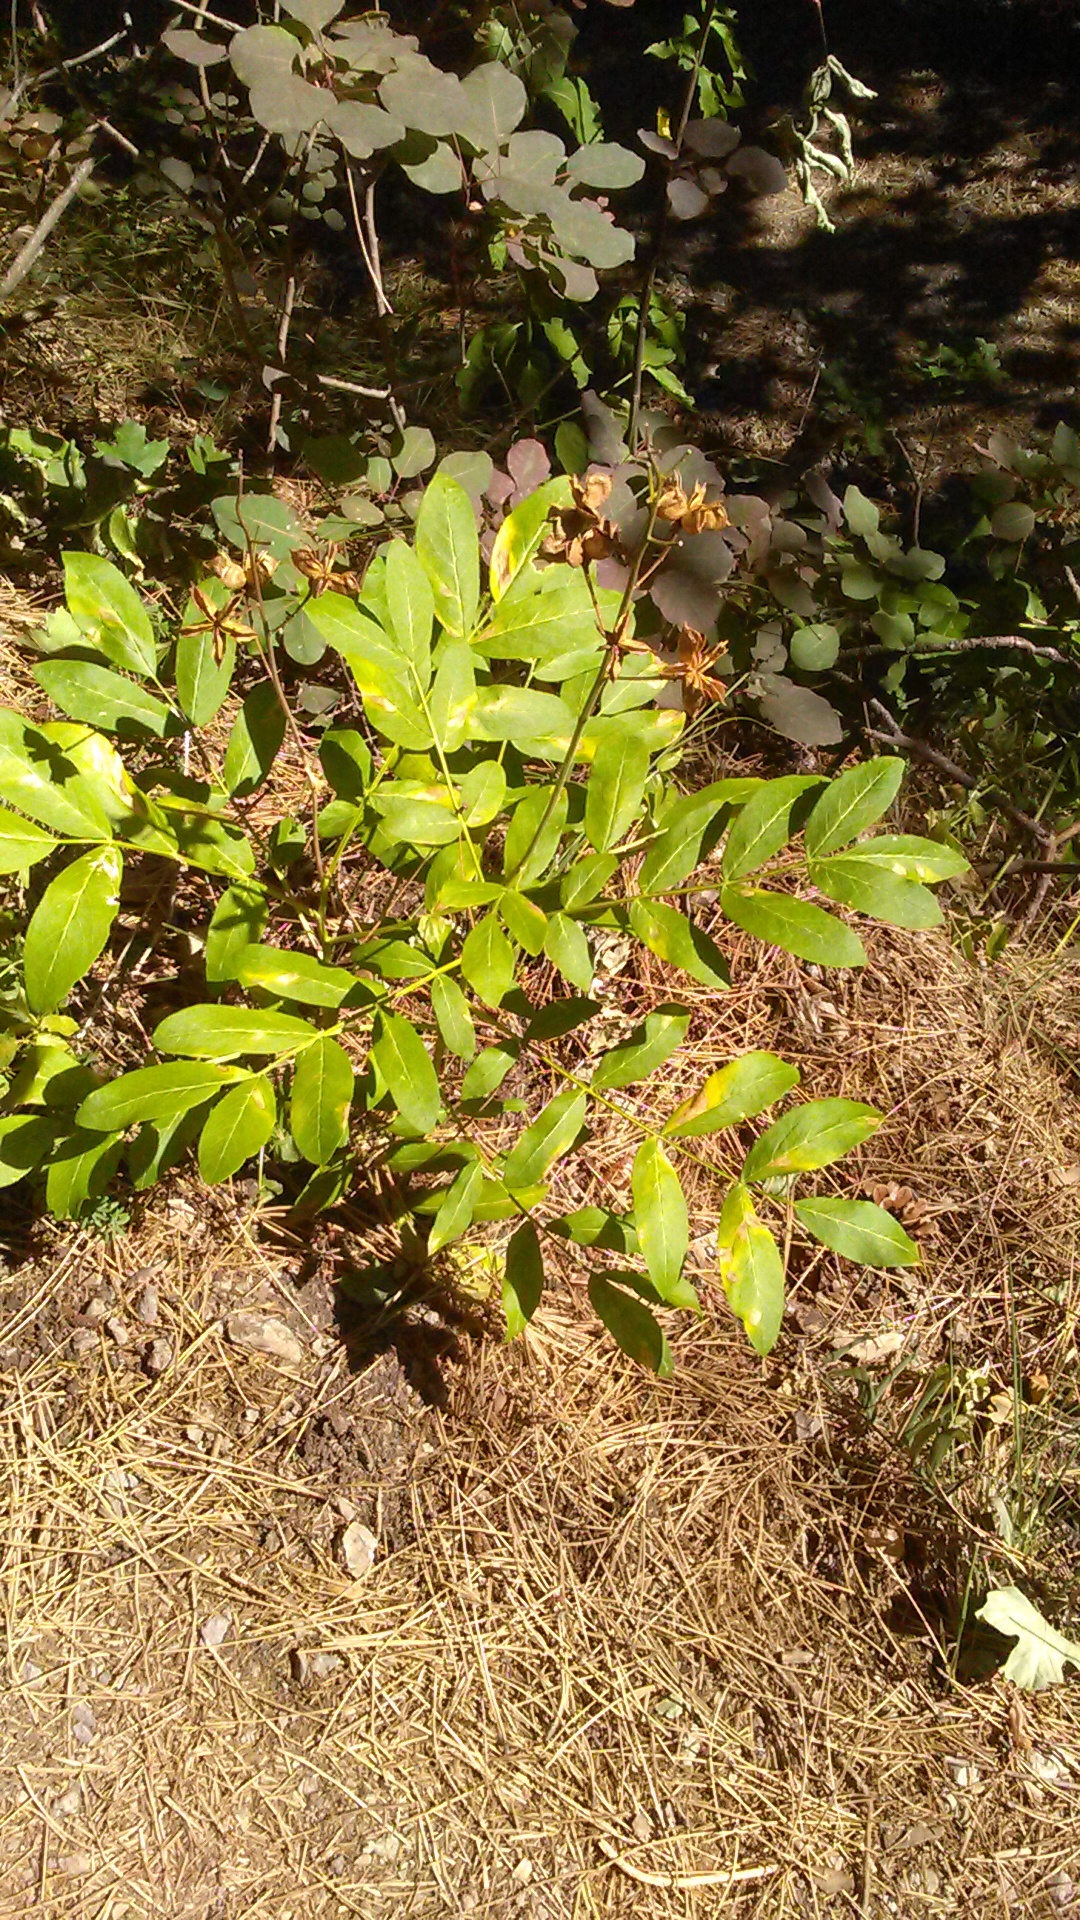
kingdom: Plantae
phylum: Tracheophyta
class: Magnoliopsida
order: Sapindales
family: Rutaceae
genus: Dictamnus
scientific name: Dictamnus albus
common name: Gasplant
